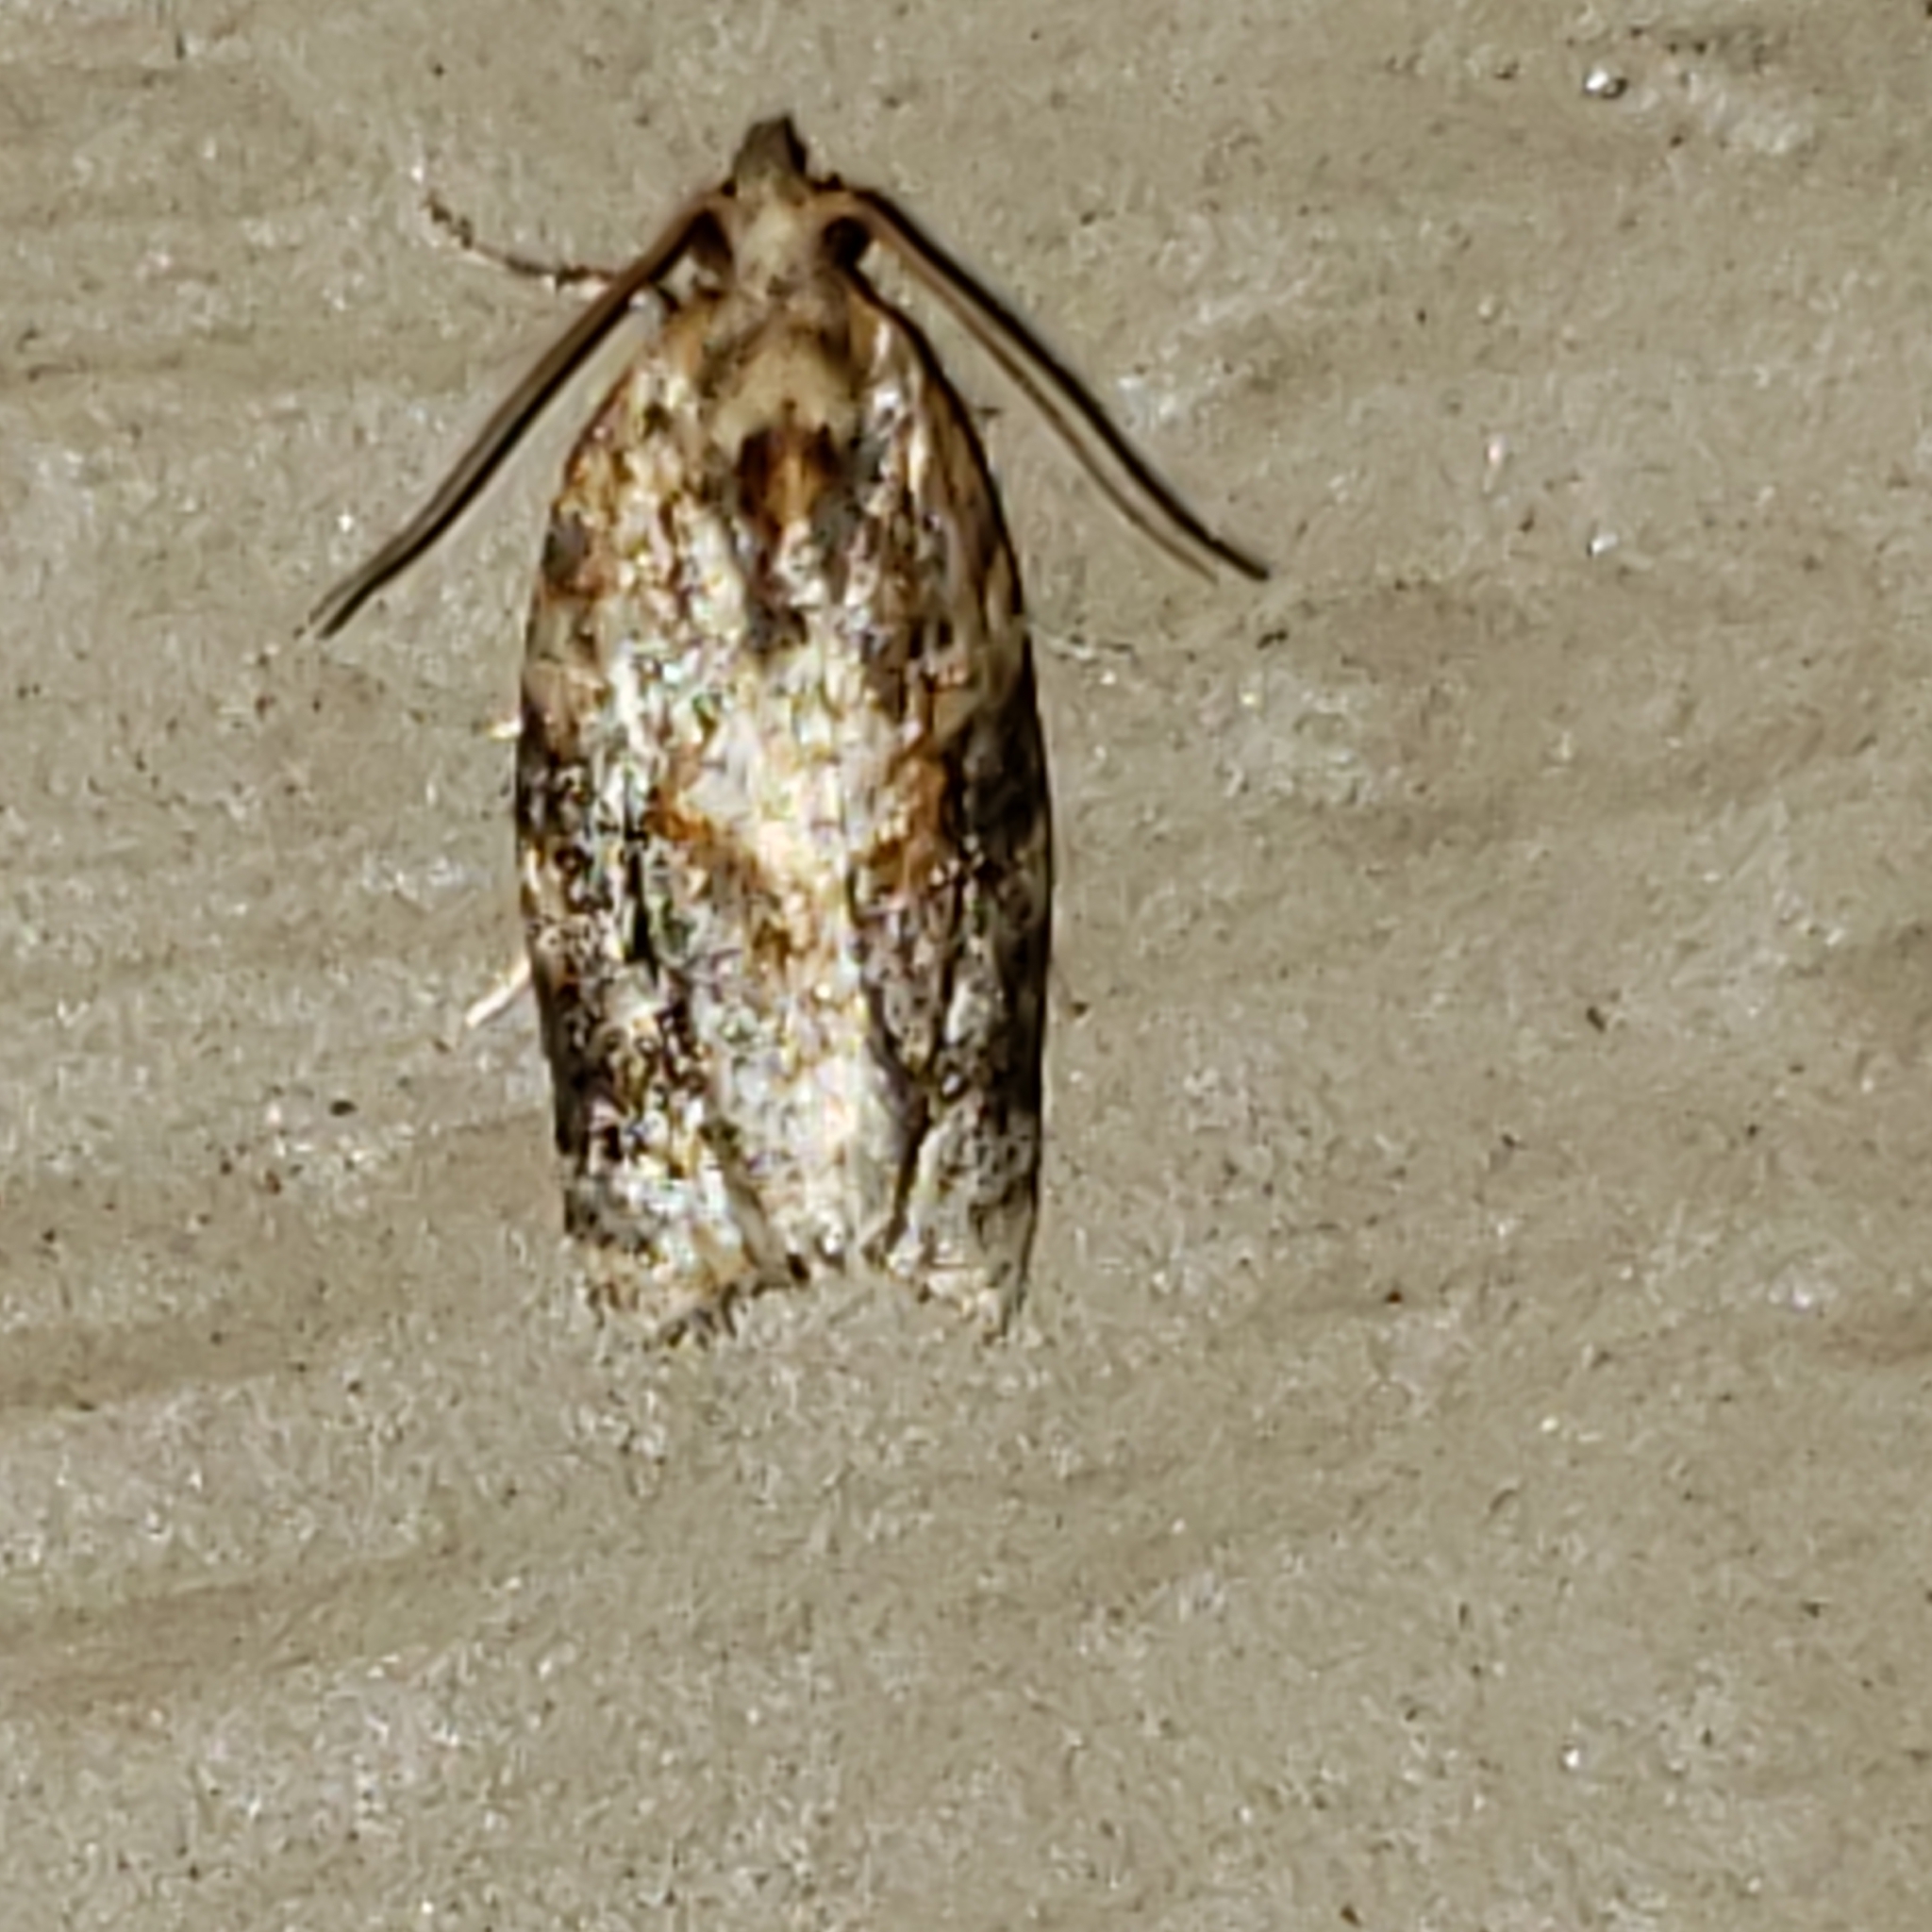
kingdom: Animalia
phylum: Arthropoda
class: Insecta
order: Lepidoptera
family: Tortricidae
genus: Argyrotaenia
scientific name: Argyrotaenia velutinana
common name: Red-banded leafroller moth
